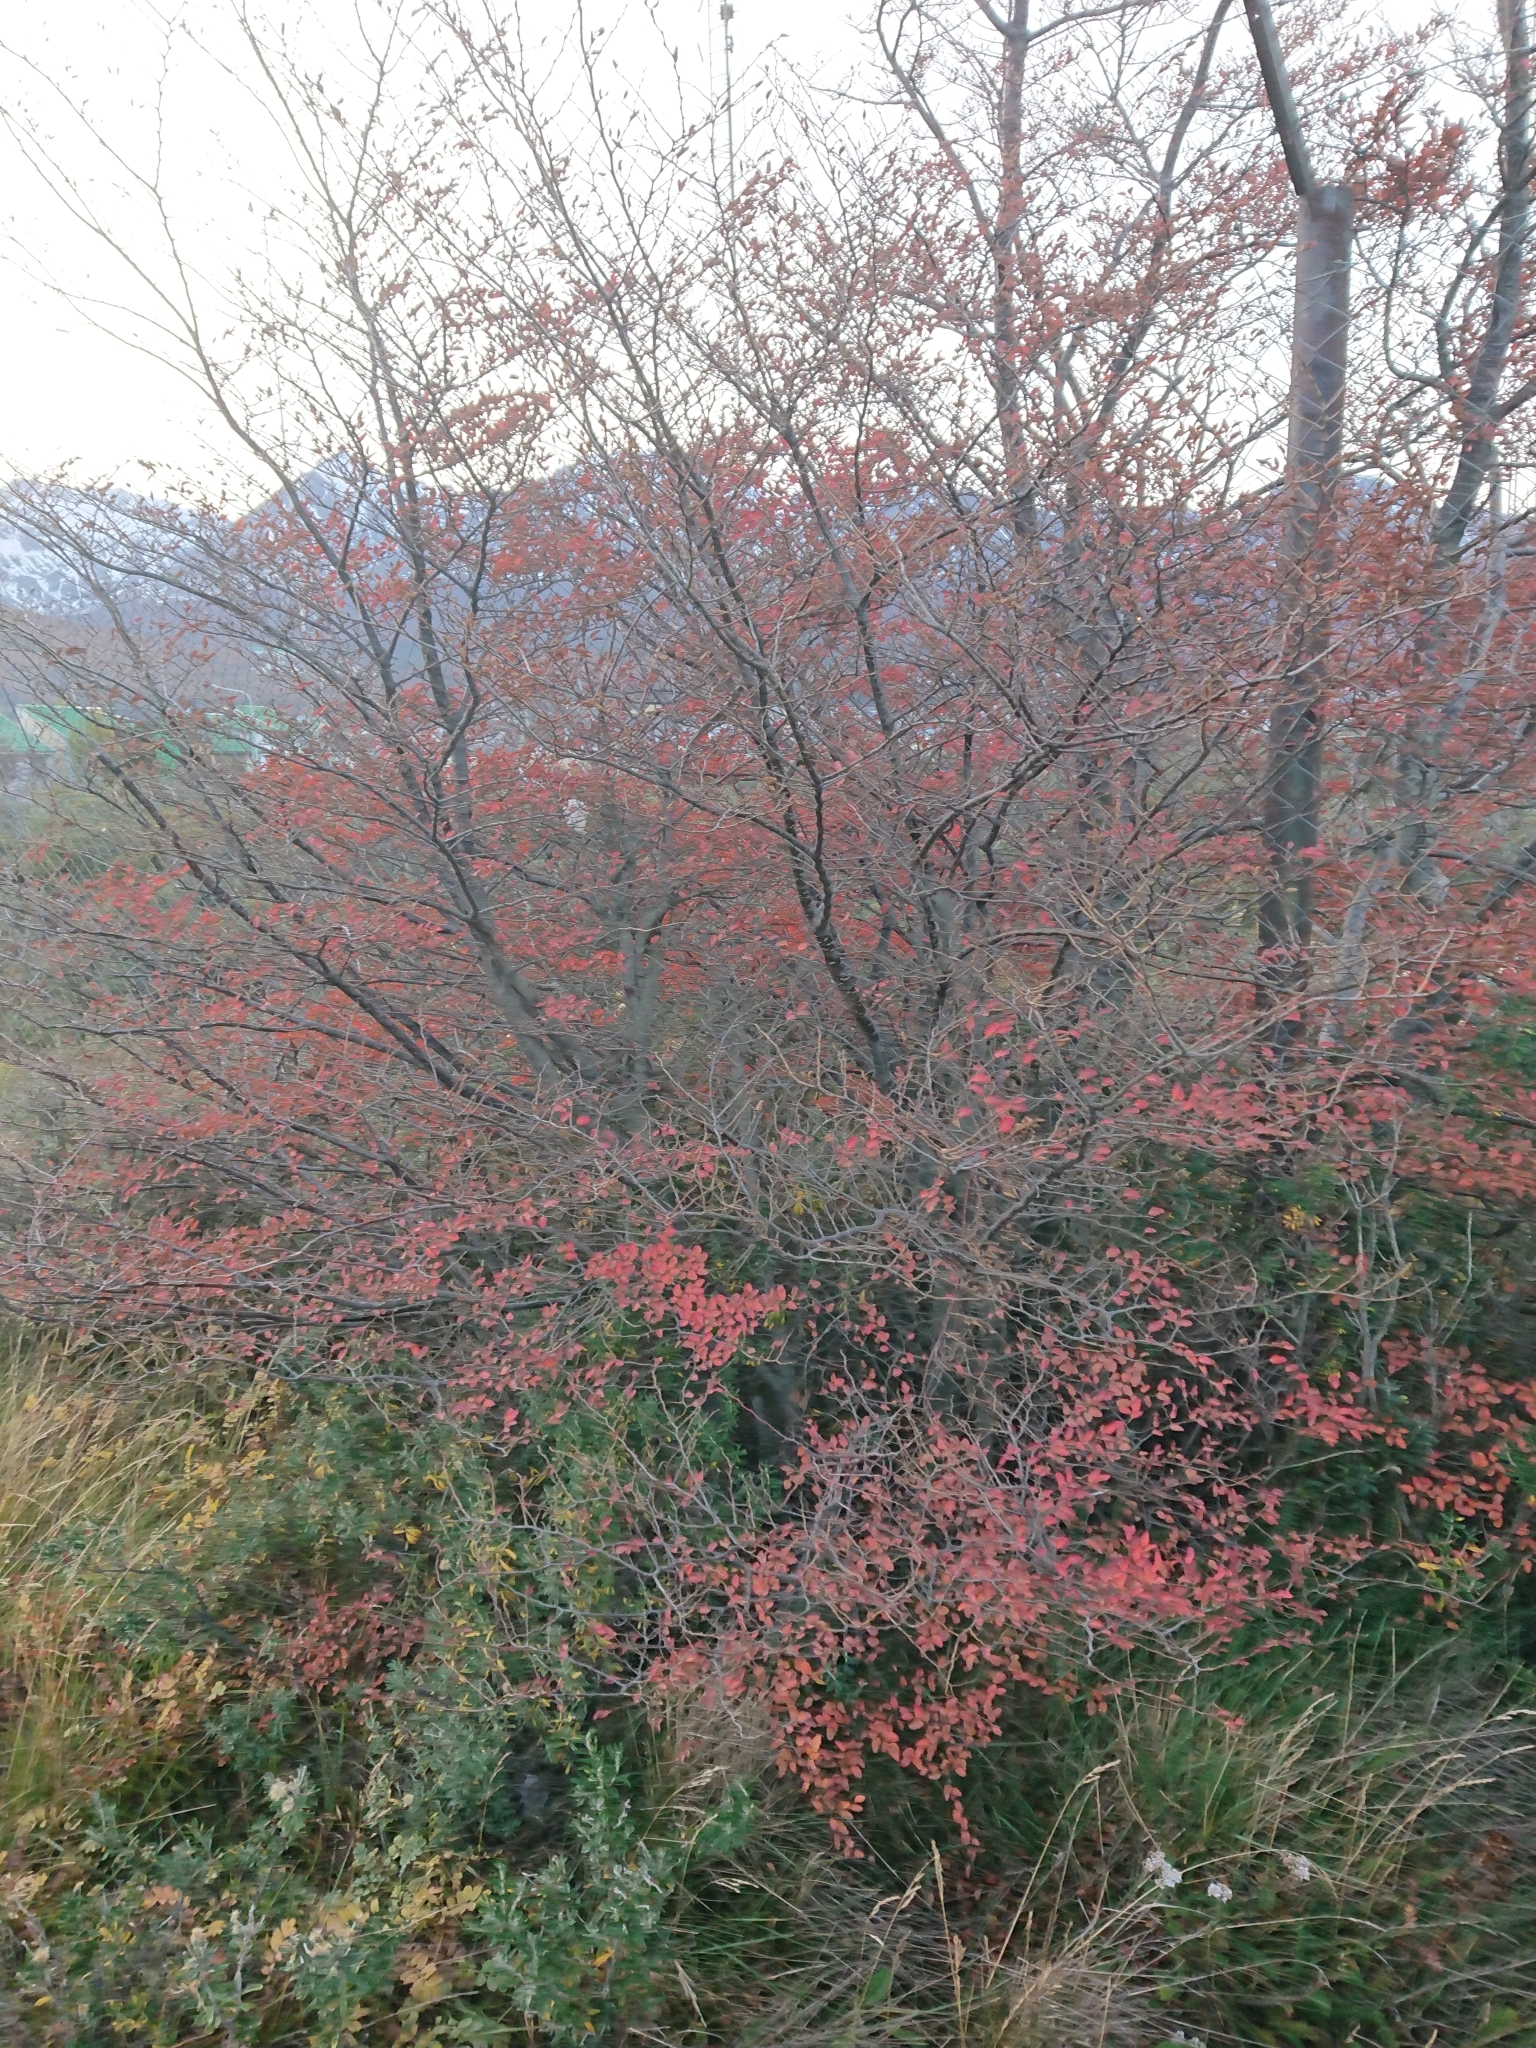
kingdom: Plantae
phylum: Tracheophyta
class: Magnoliopsida
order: Fagales
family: Nothofagaceae
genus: Nothofagus
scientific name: Nothofagus antarctica
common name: Antarctic beech
